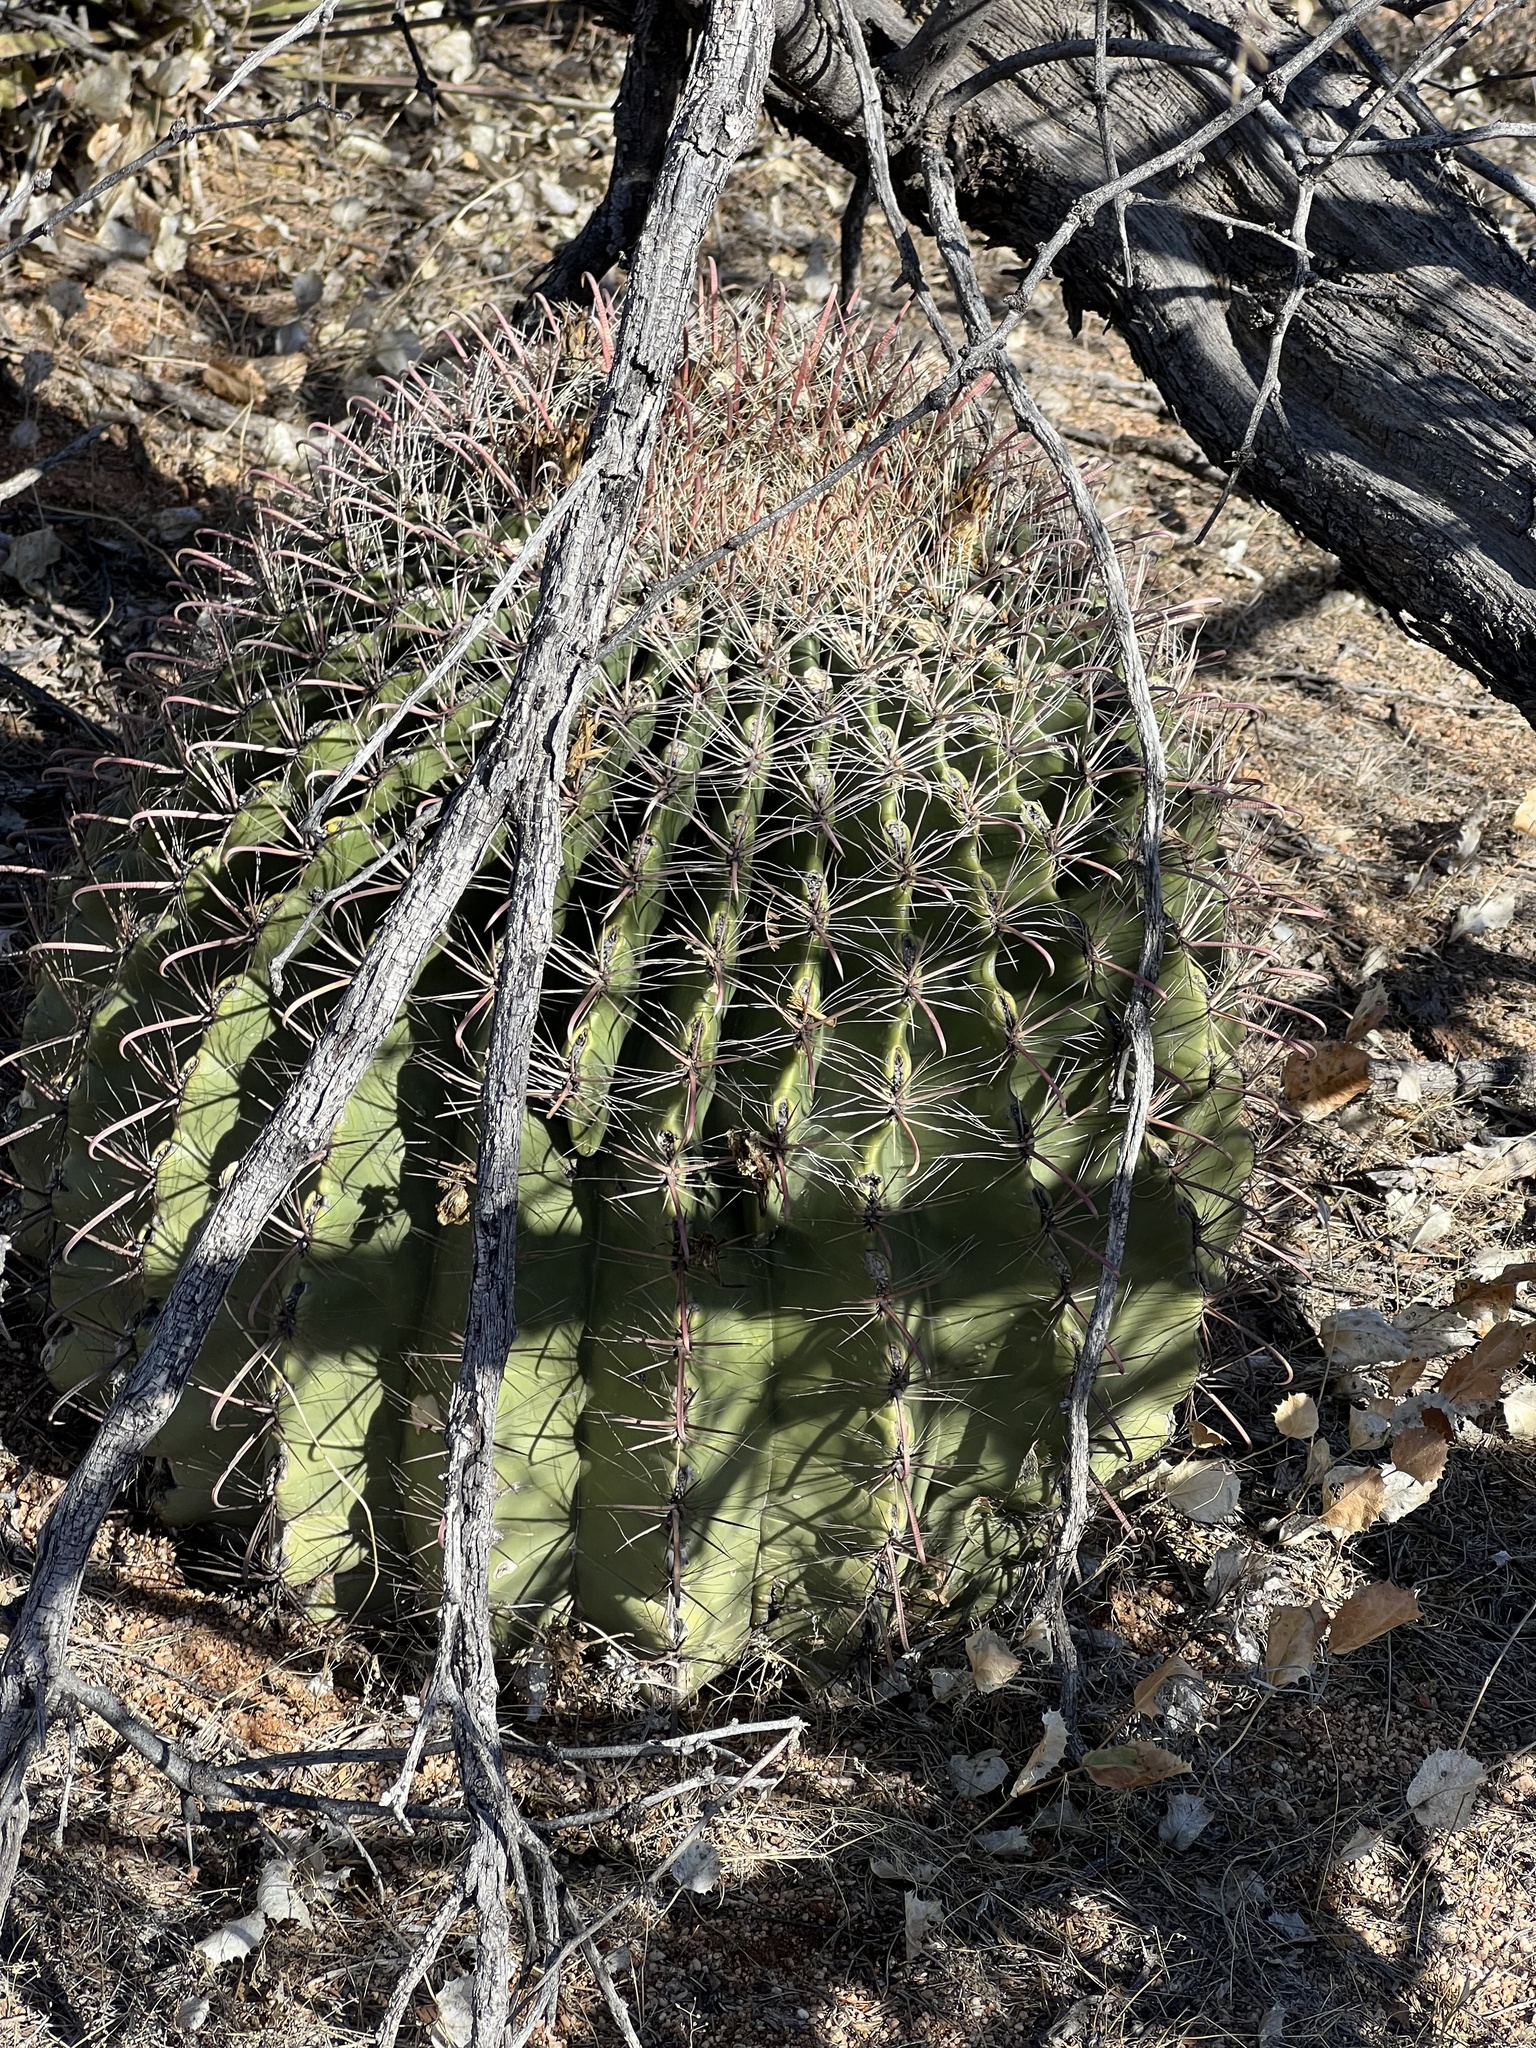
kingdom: Plantae
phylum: Tracheophyta
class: Magnoliopsida
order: Caryophyllales
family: Cactaceae
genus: Ferocactus
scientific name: Ferocactus wislizeni
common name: Candy barrel cactus
